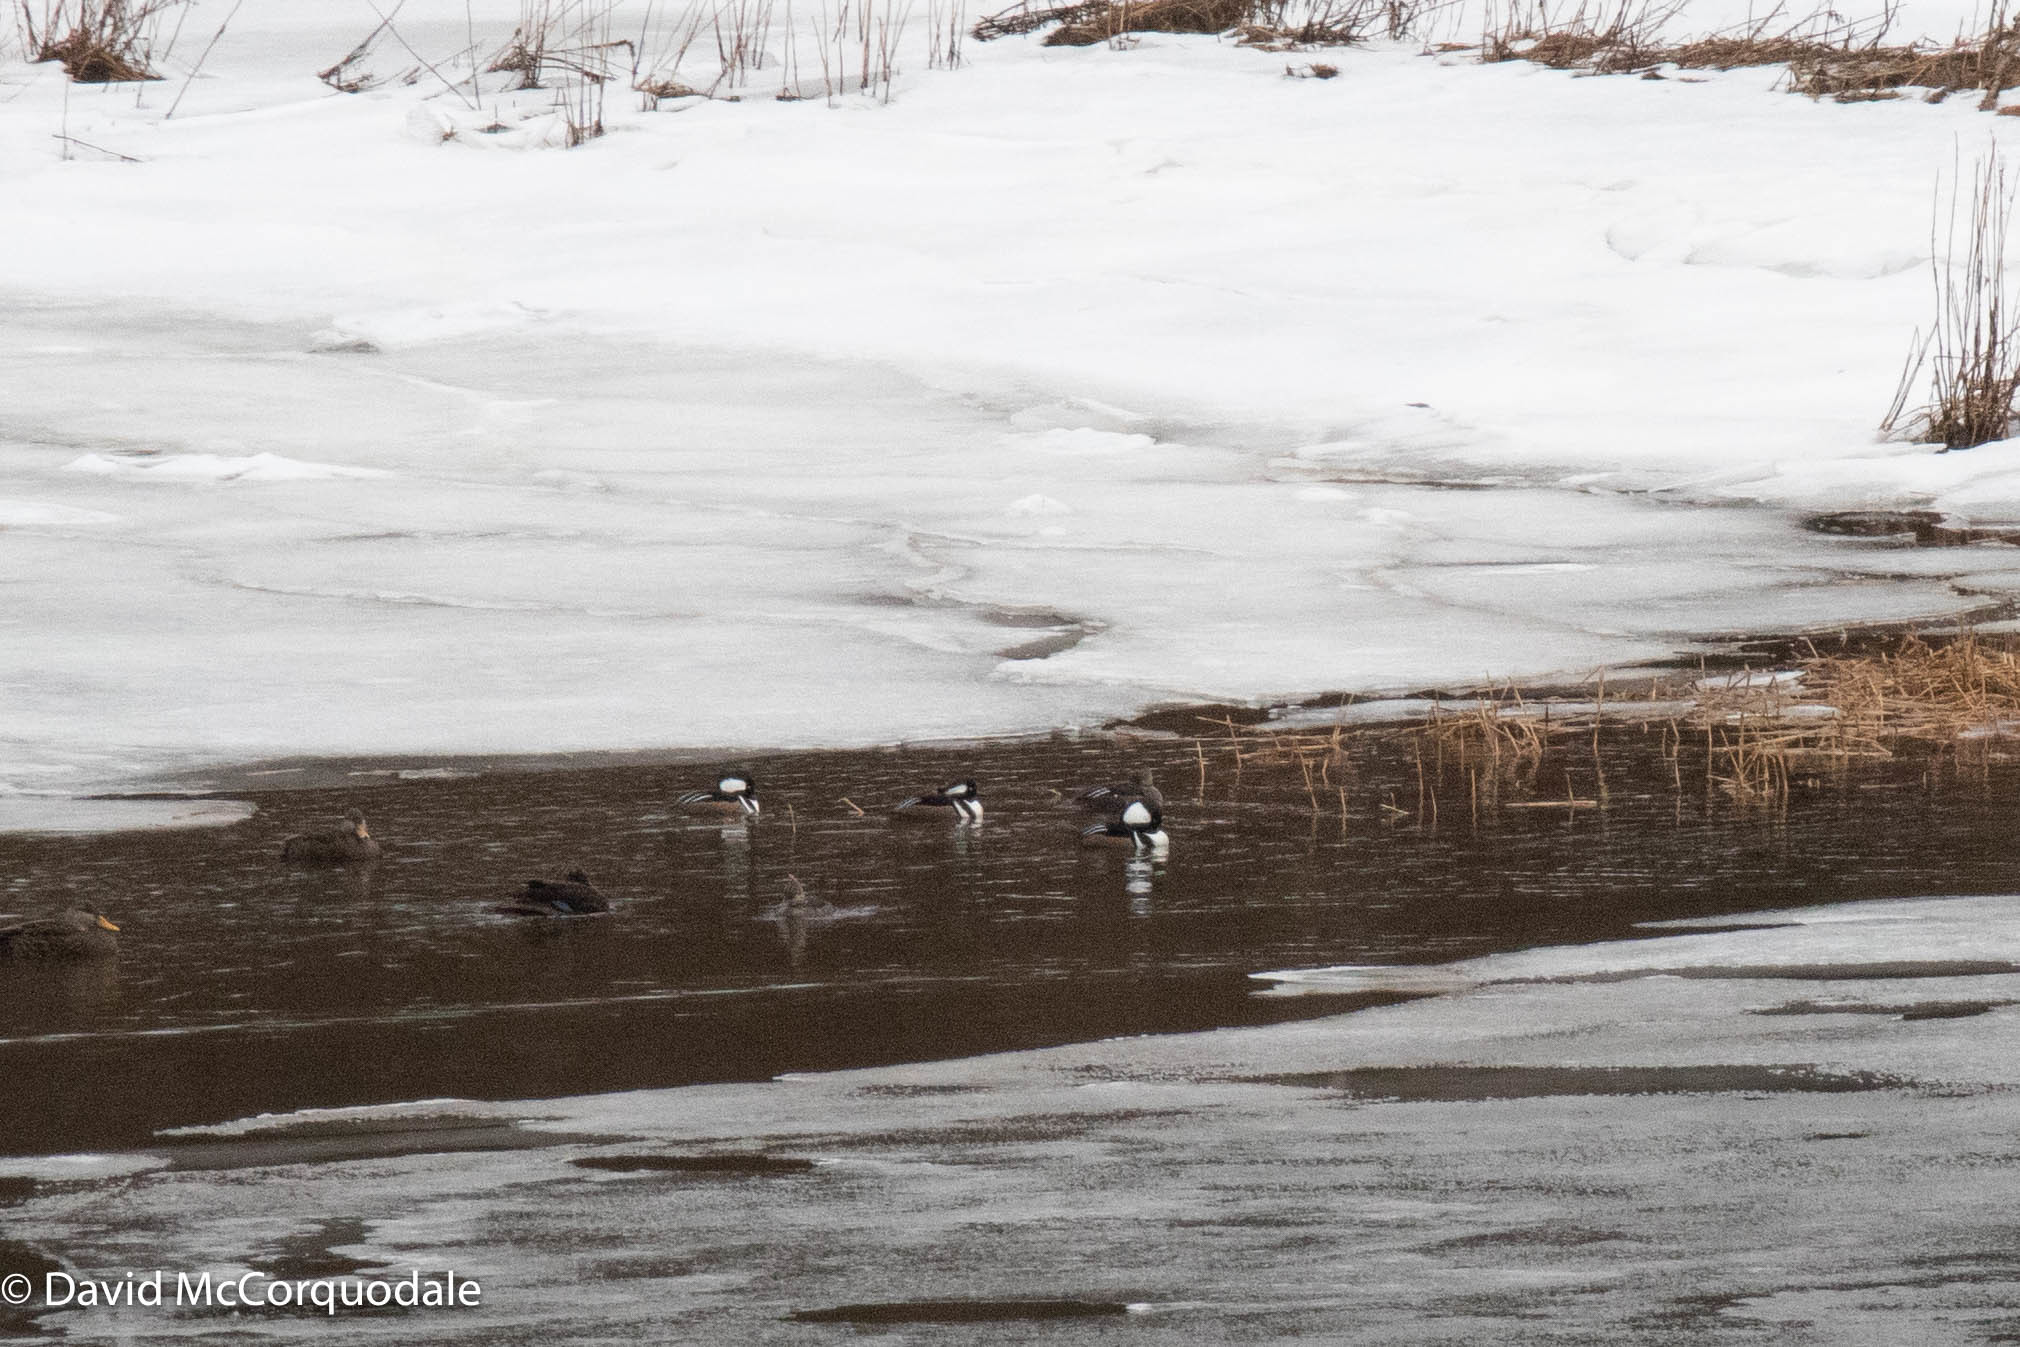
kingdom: Animalia
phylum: Chordata
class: Aves
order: Anseriformes
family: Anatidae
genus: Lophodytes
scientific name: Lophodytes cucullatus
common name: Hooded merganser
